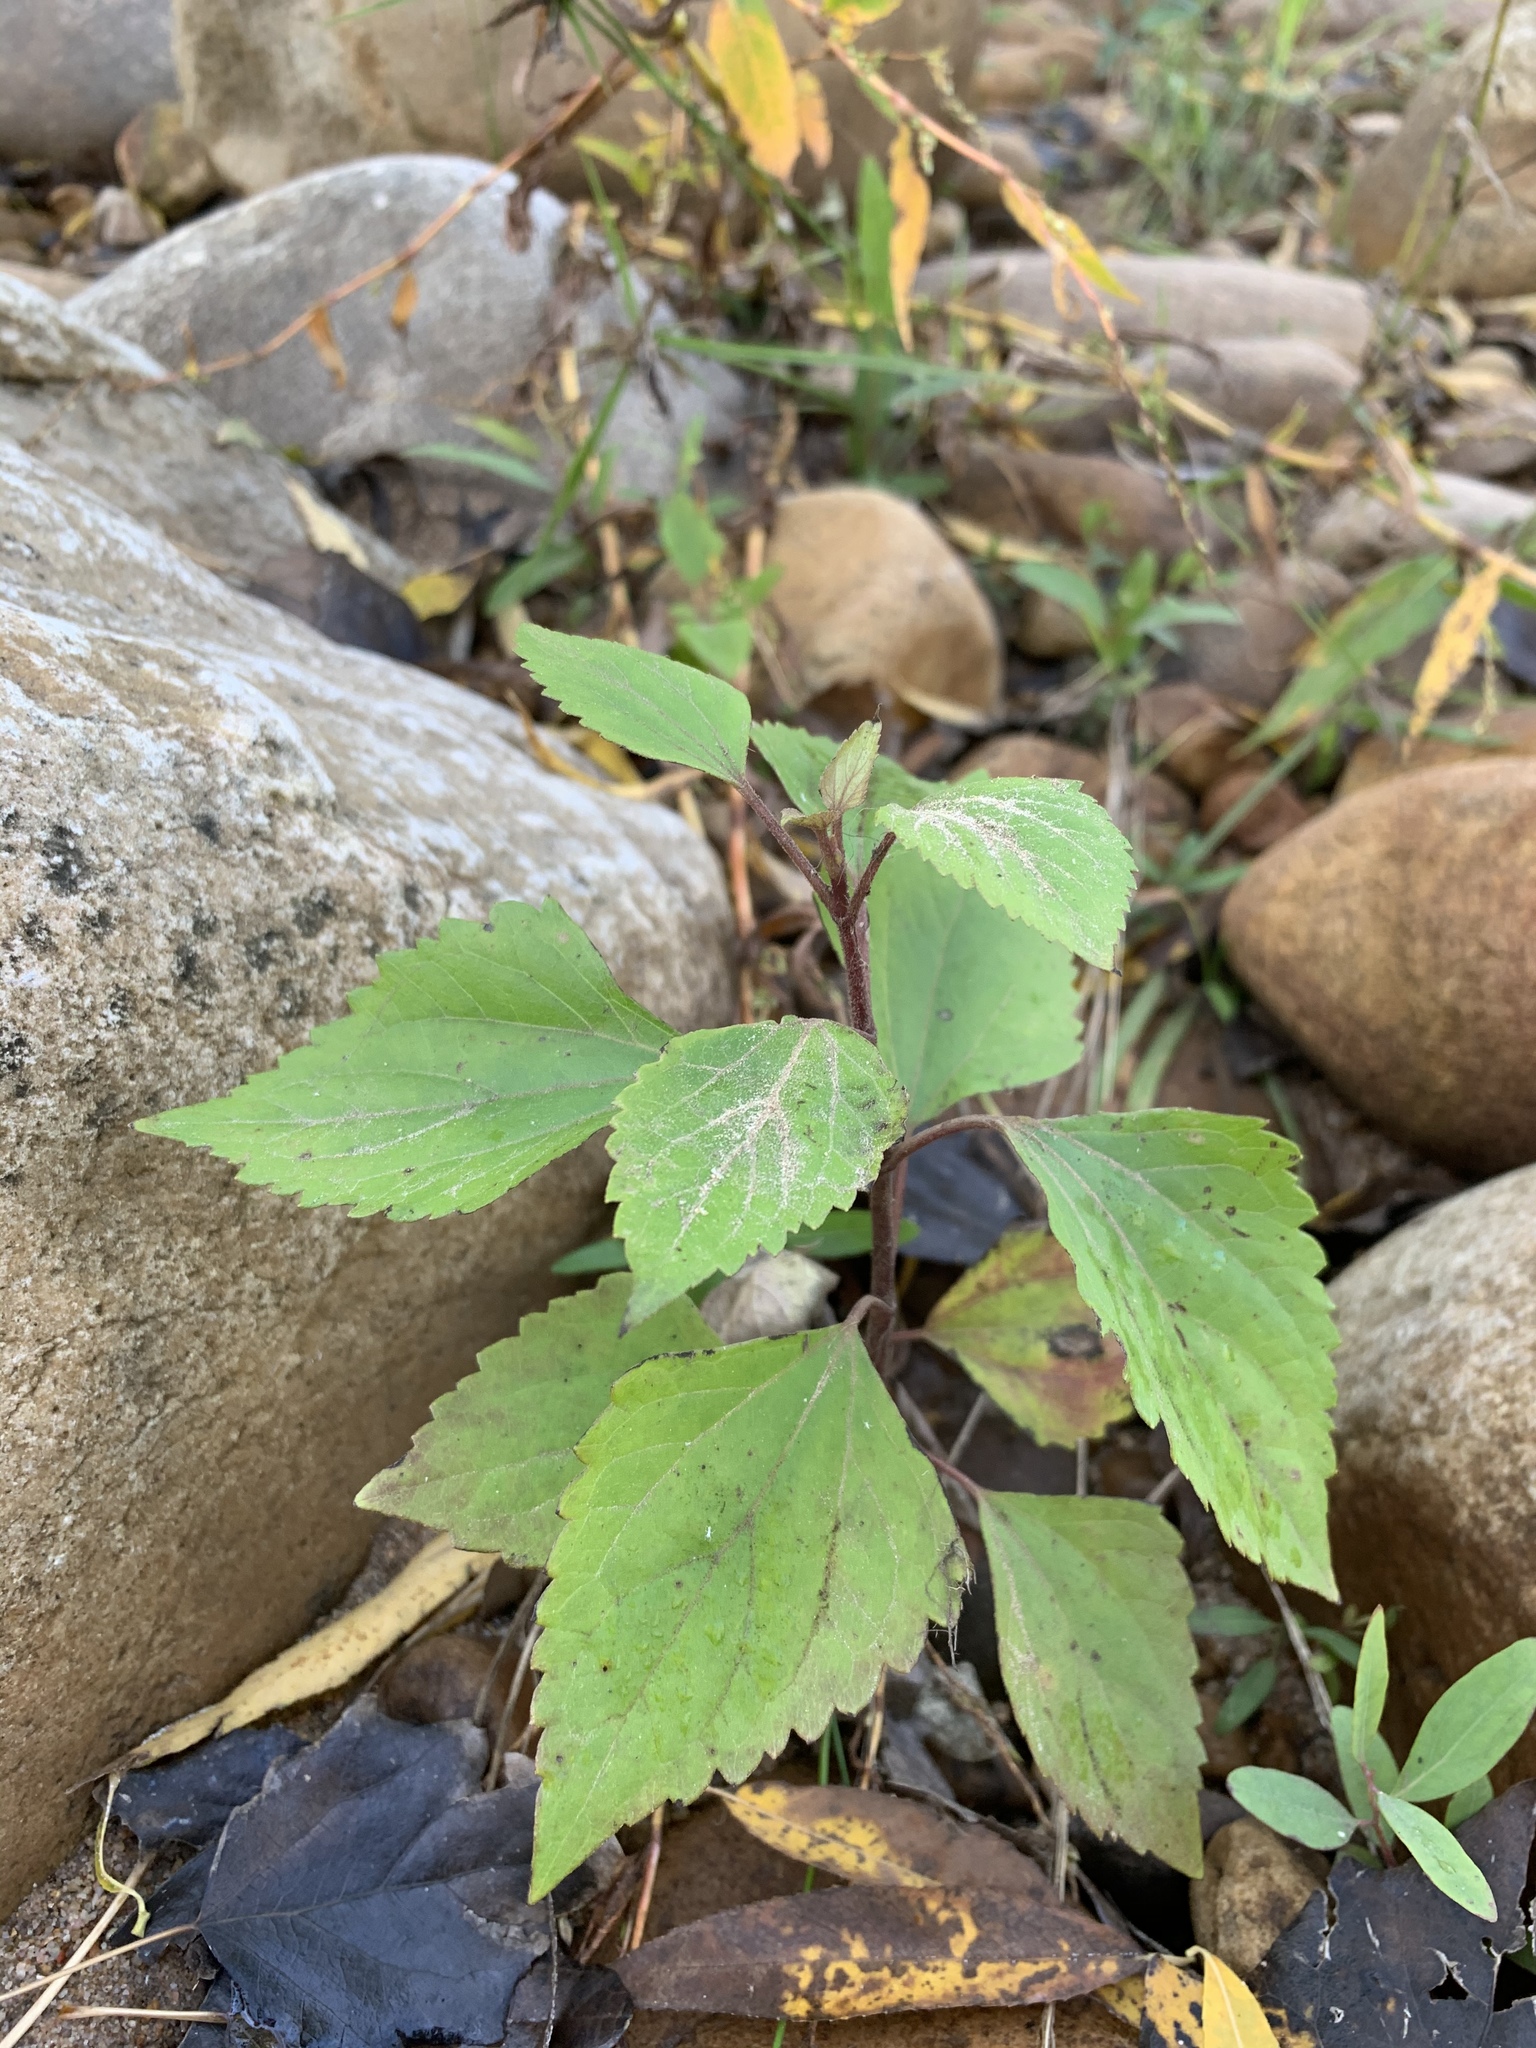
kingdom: Plantae
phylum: Tracheophyta
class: Magnoliopsida
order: Asterales
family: Asteraceae
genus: Ageratina
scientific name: Ageratina adenophora
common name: Sticky snakeroot
